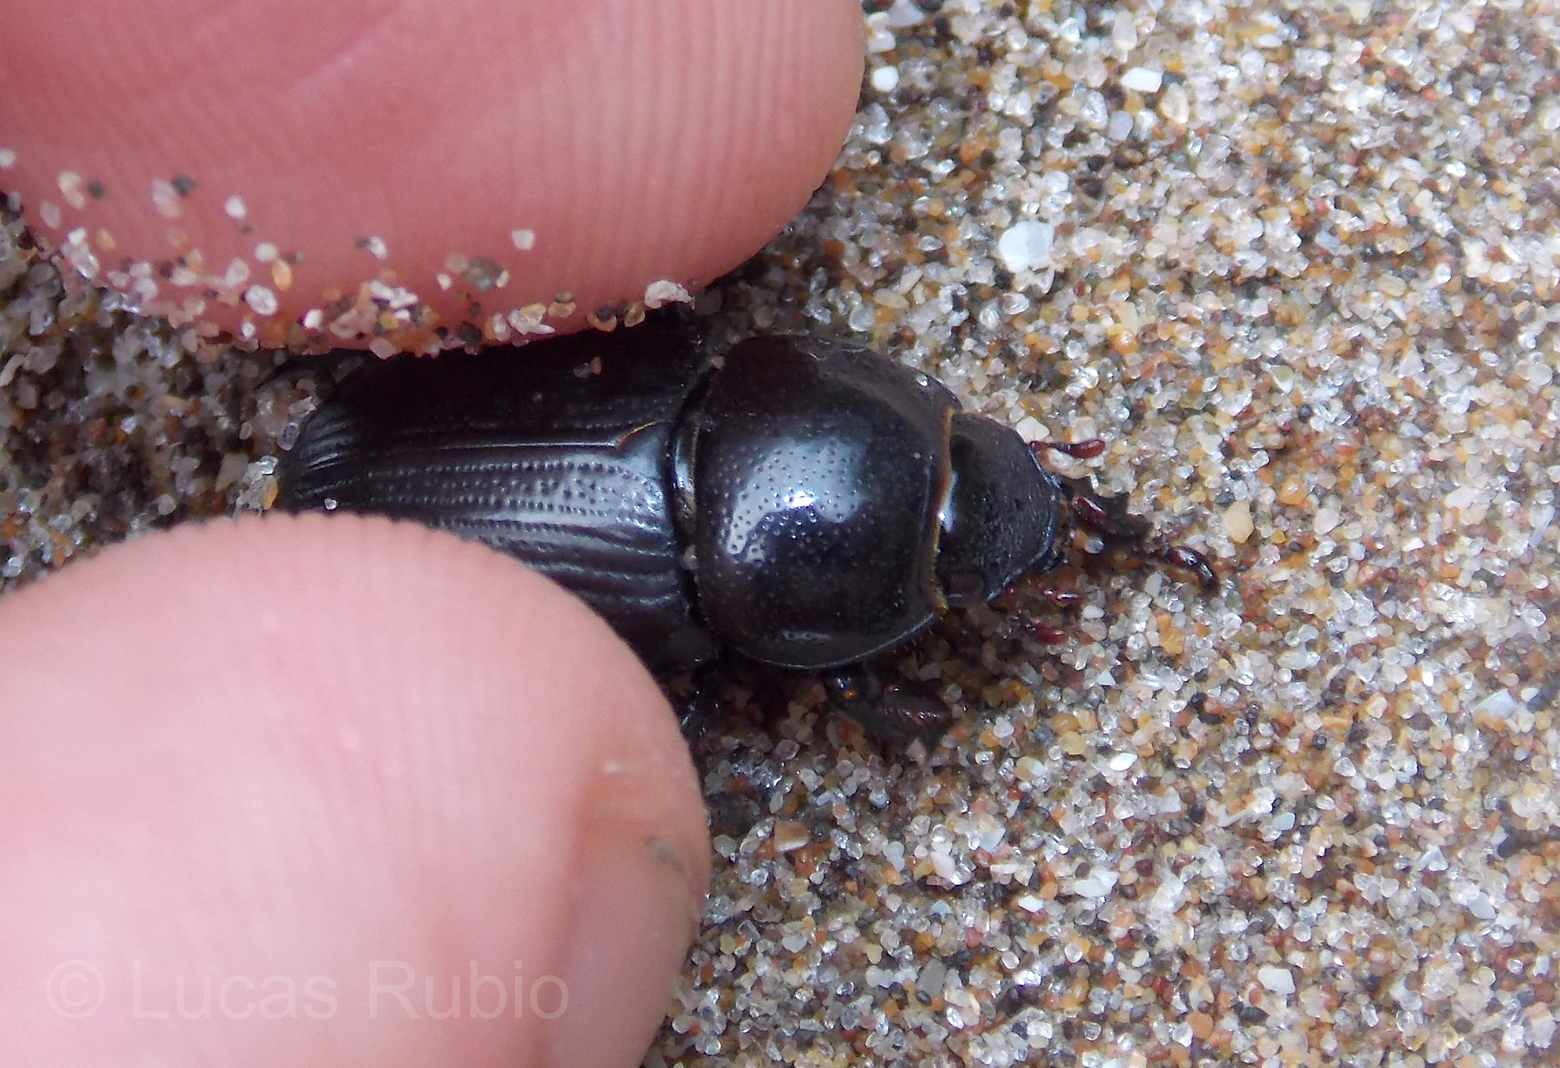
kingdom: Animalia
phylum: Arthropoda
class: Insecta
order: Coleoptera
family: Scarabaeidae
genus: Dyscinetus
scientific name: Dyscinetus gagates
